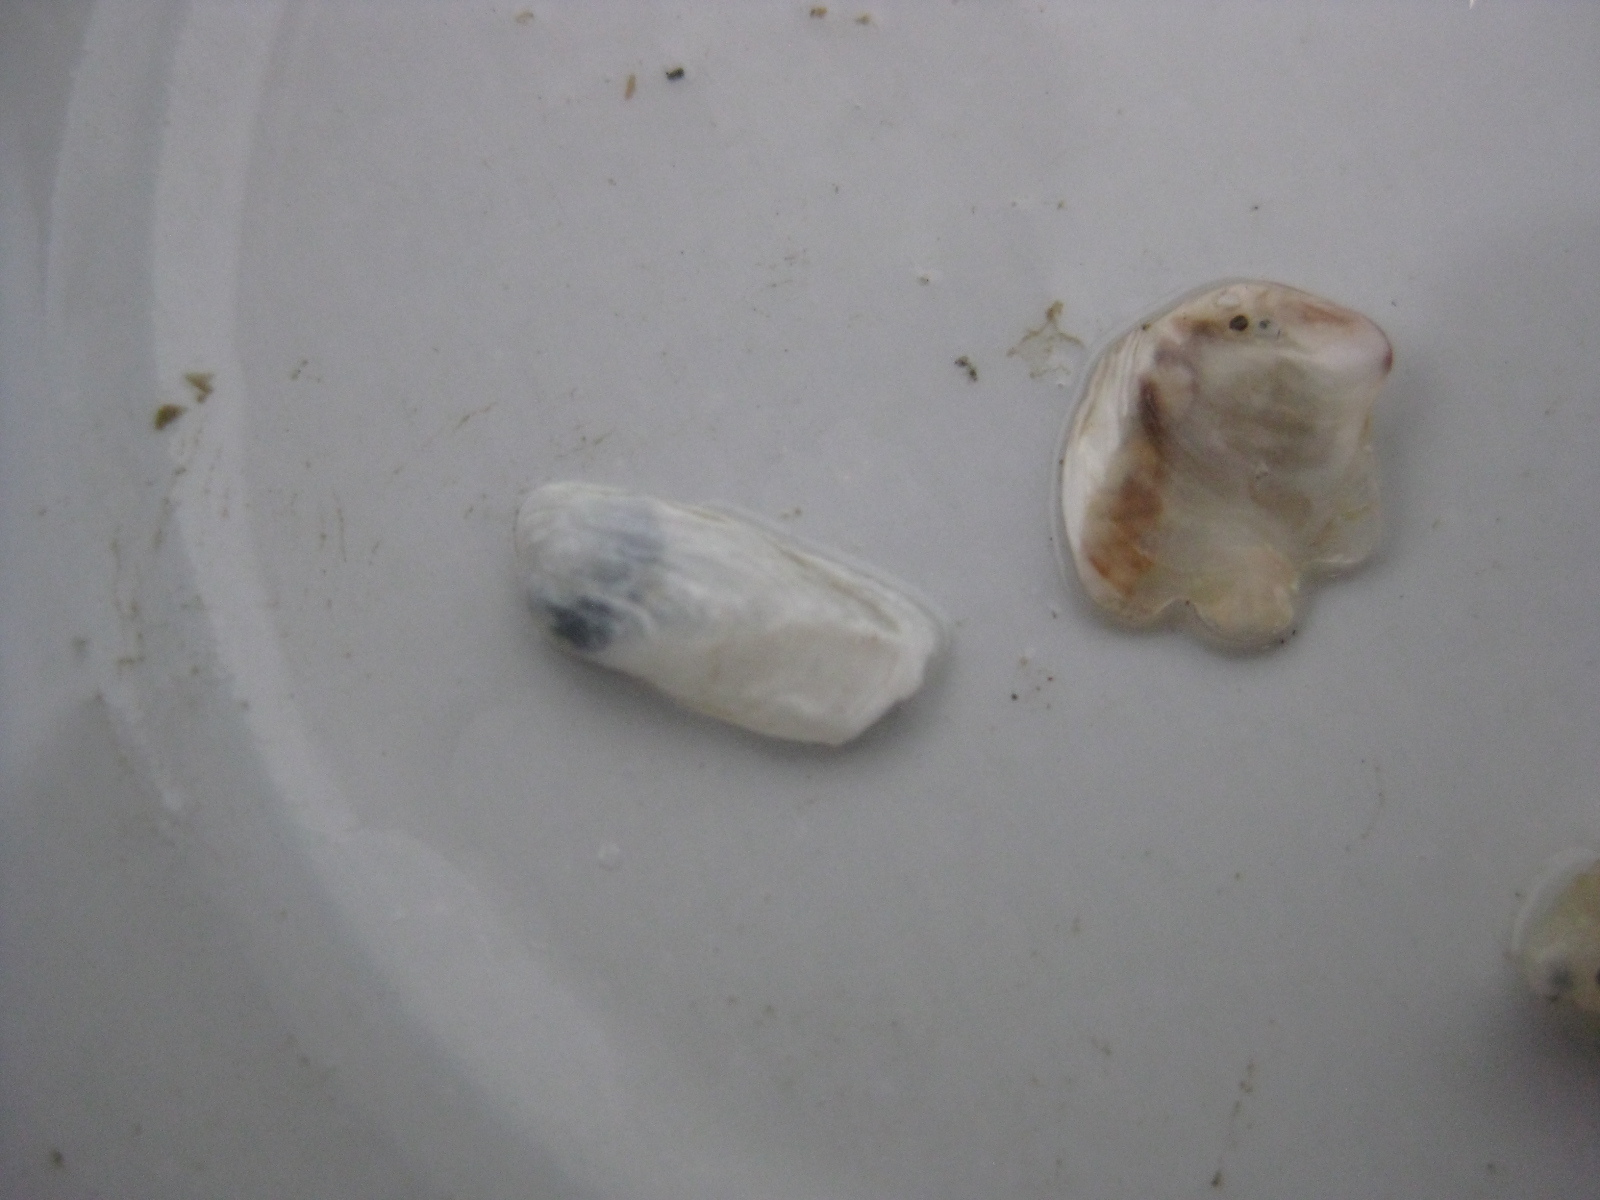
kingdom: Animalia
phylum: Mollusca
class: Bivalvia
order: Adapedonta
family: Hiatellidae
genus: Hiatella
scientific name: Hiatella arctica
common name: Arctic hiatella
